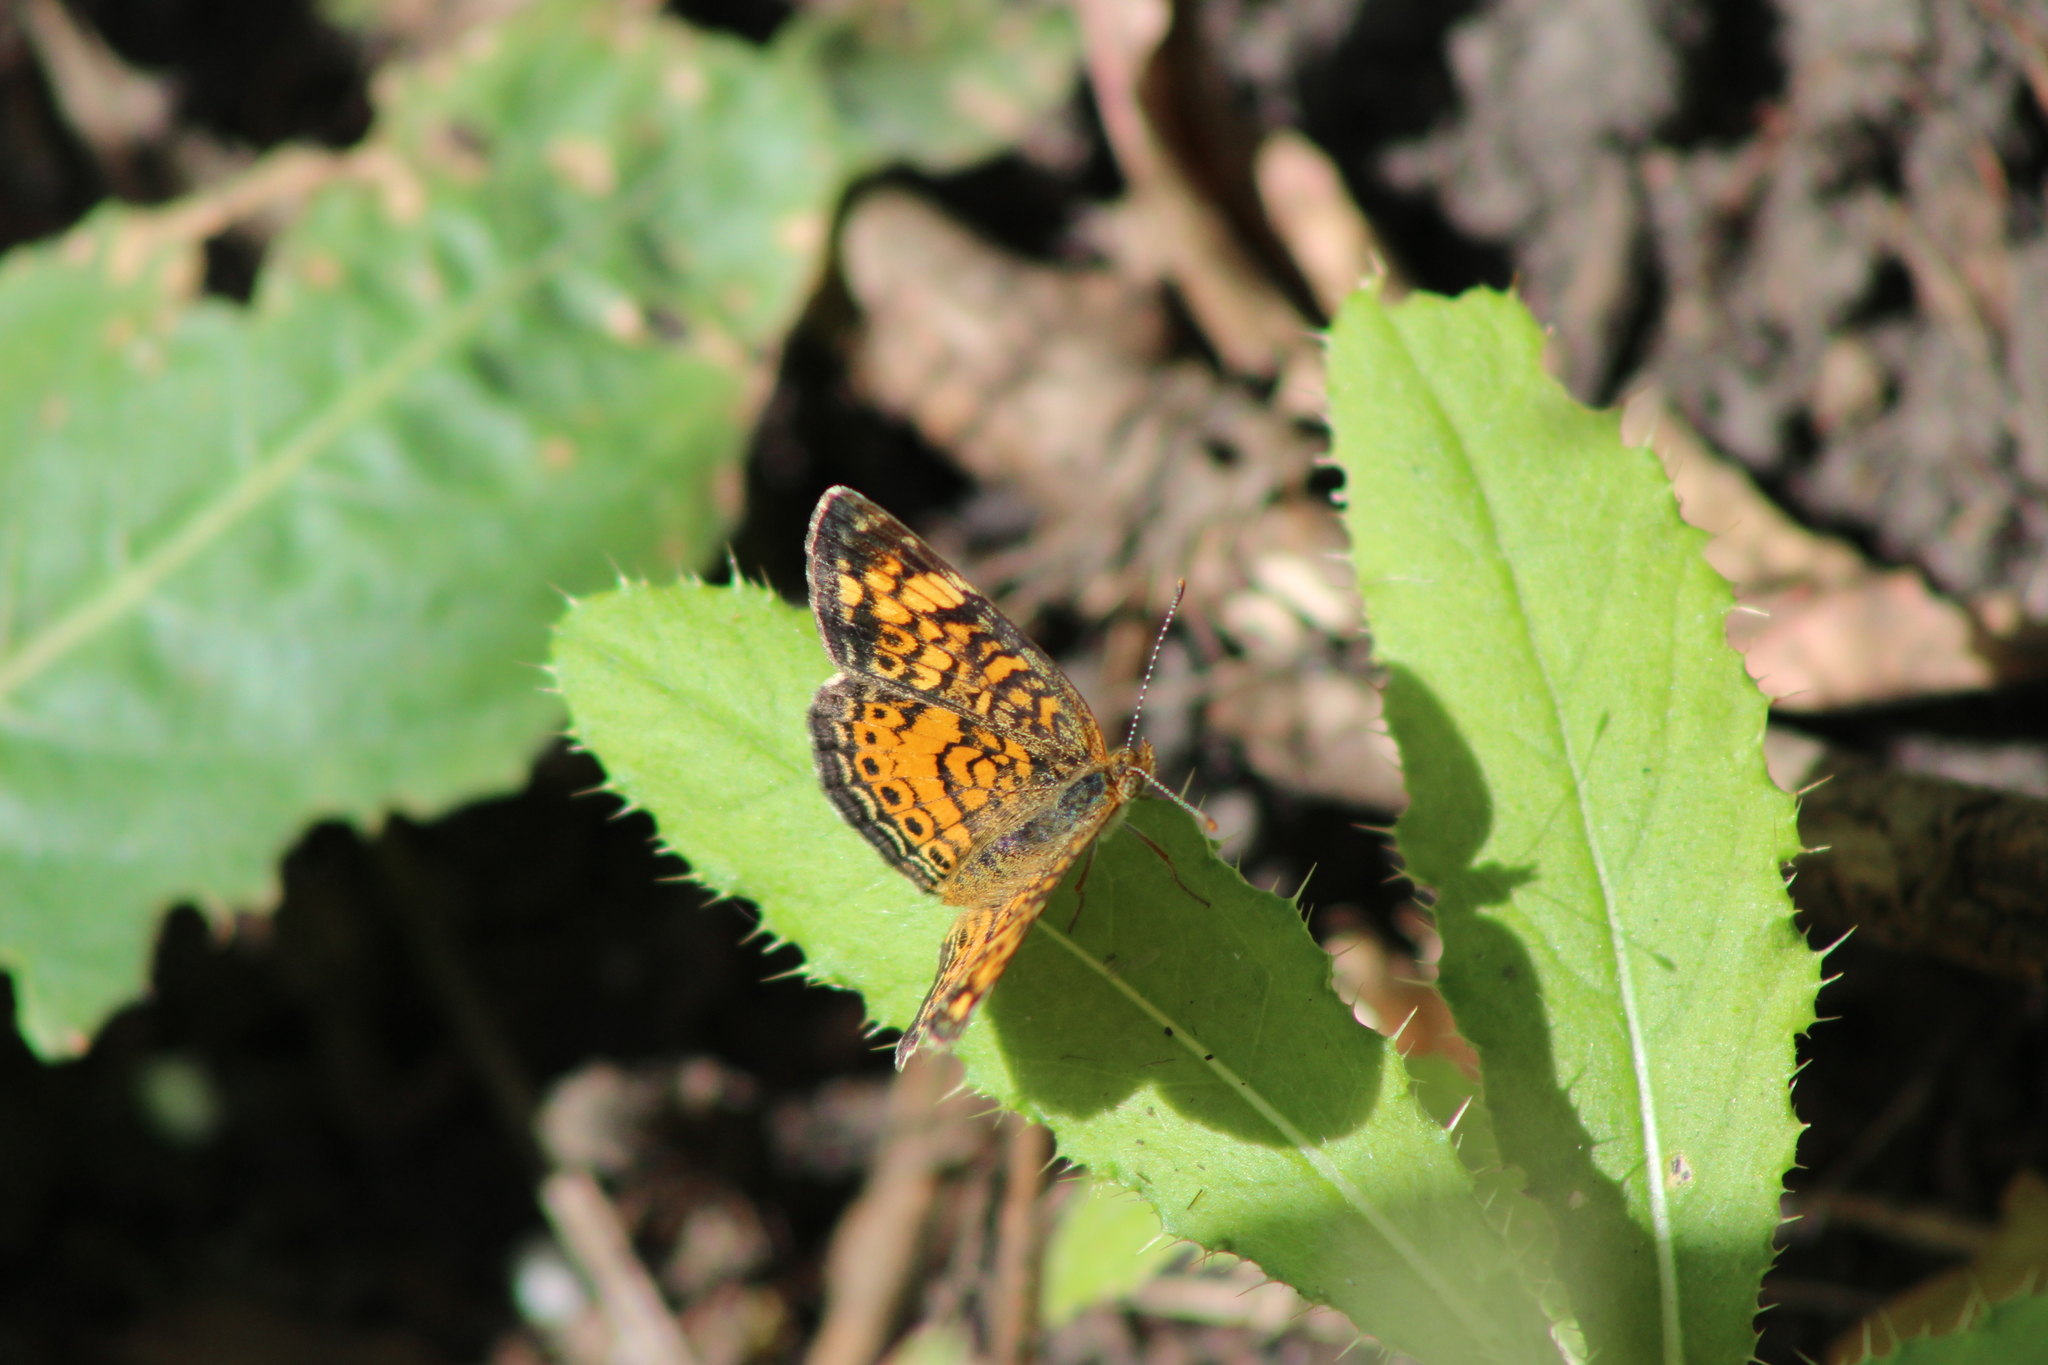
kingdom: Animalia
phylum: Arthropoda
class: Insecta
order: Lepidoptera
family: Nymphalidae
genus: Phyciodes
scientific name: Phyciodes tharos
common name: Pearl crescent
